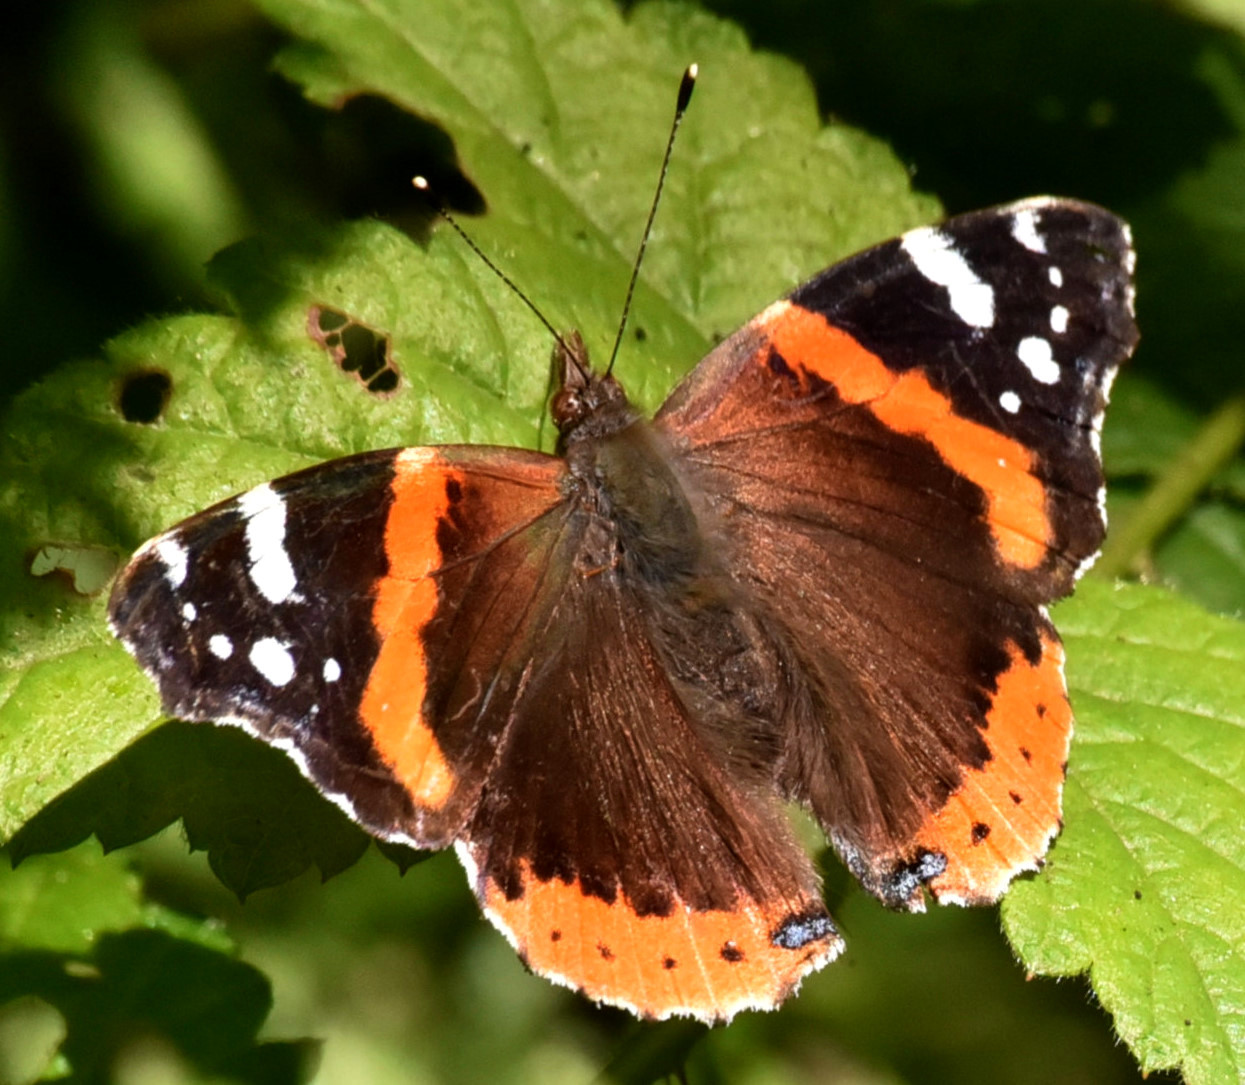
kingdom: Animalia
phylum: Arthropoda
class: Insecta
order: Lepidoptera
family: Nymphalidae
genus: Vanessa
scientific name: Vanessa atalanta
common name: Red admiral
